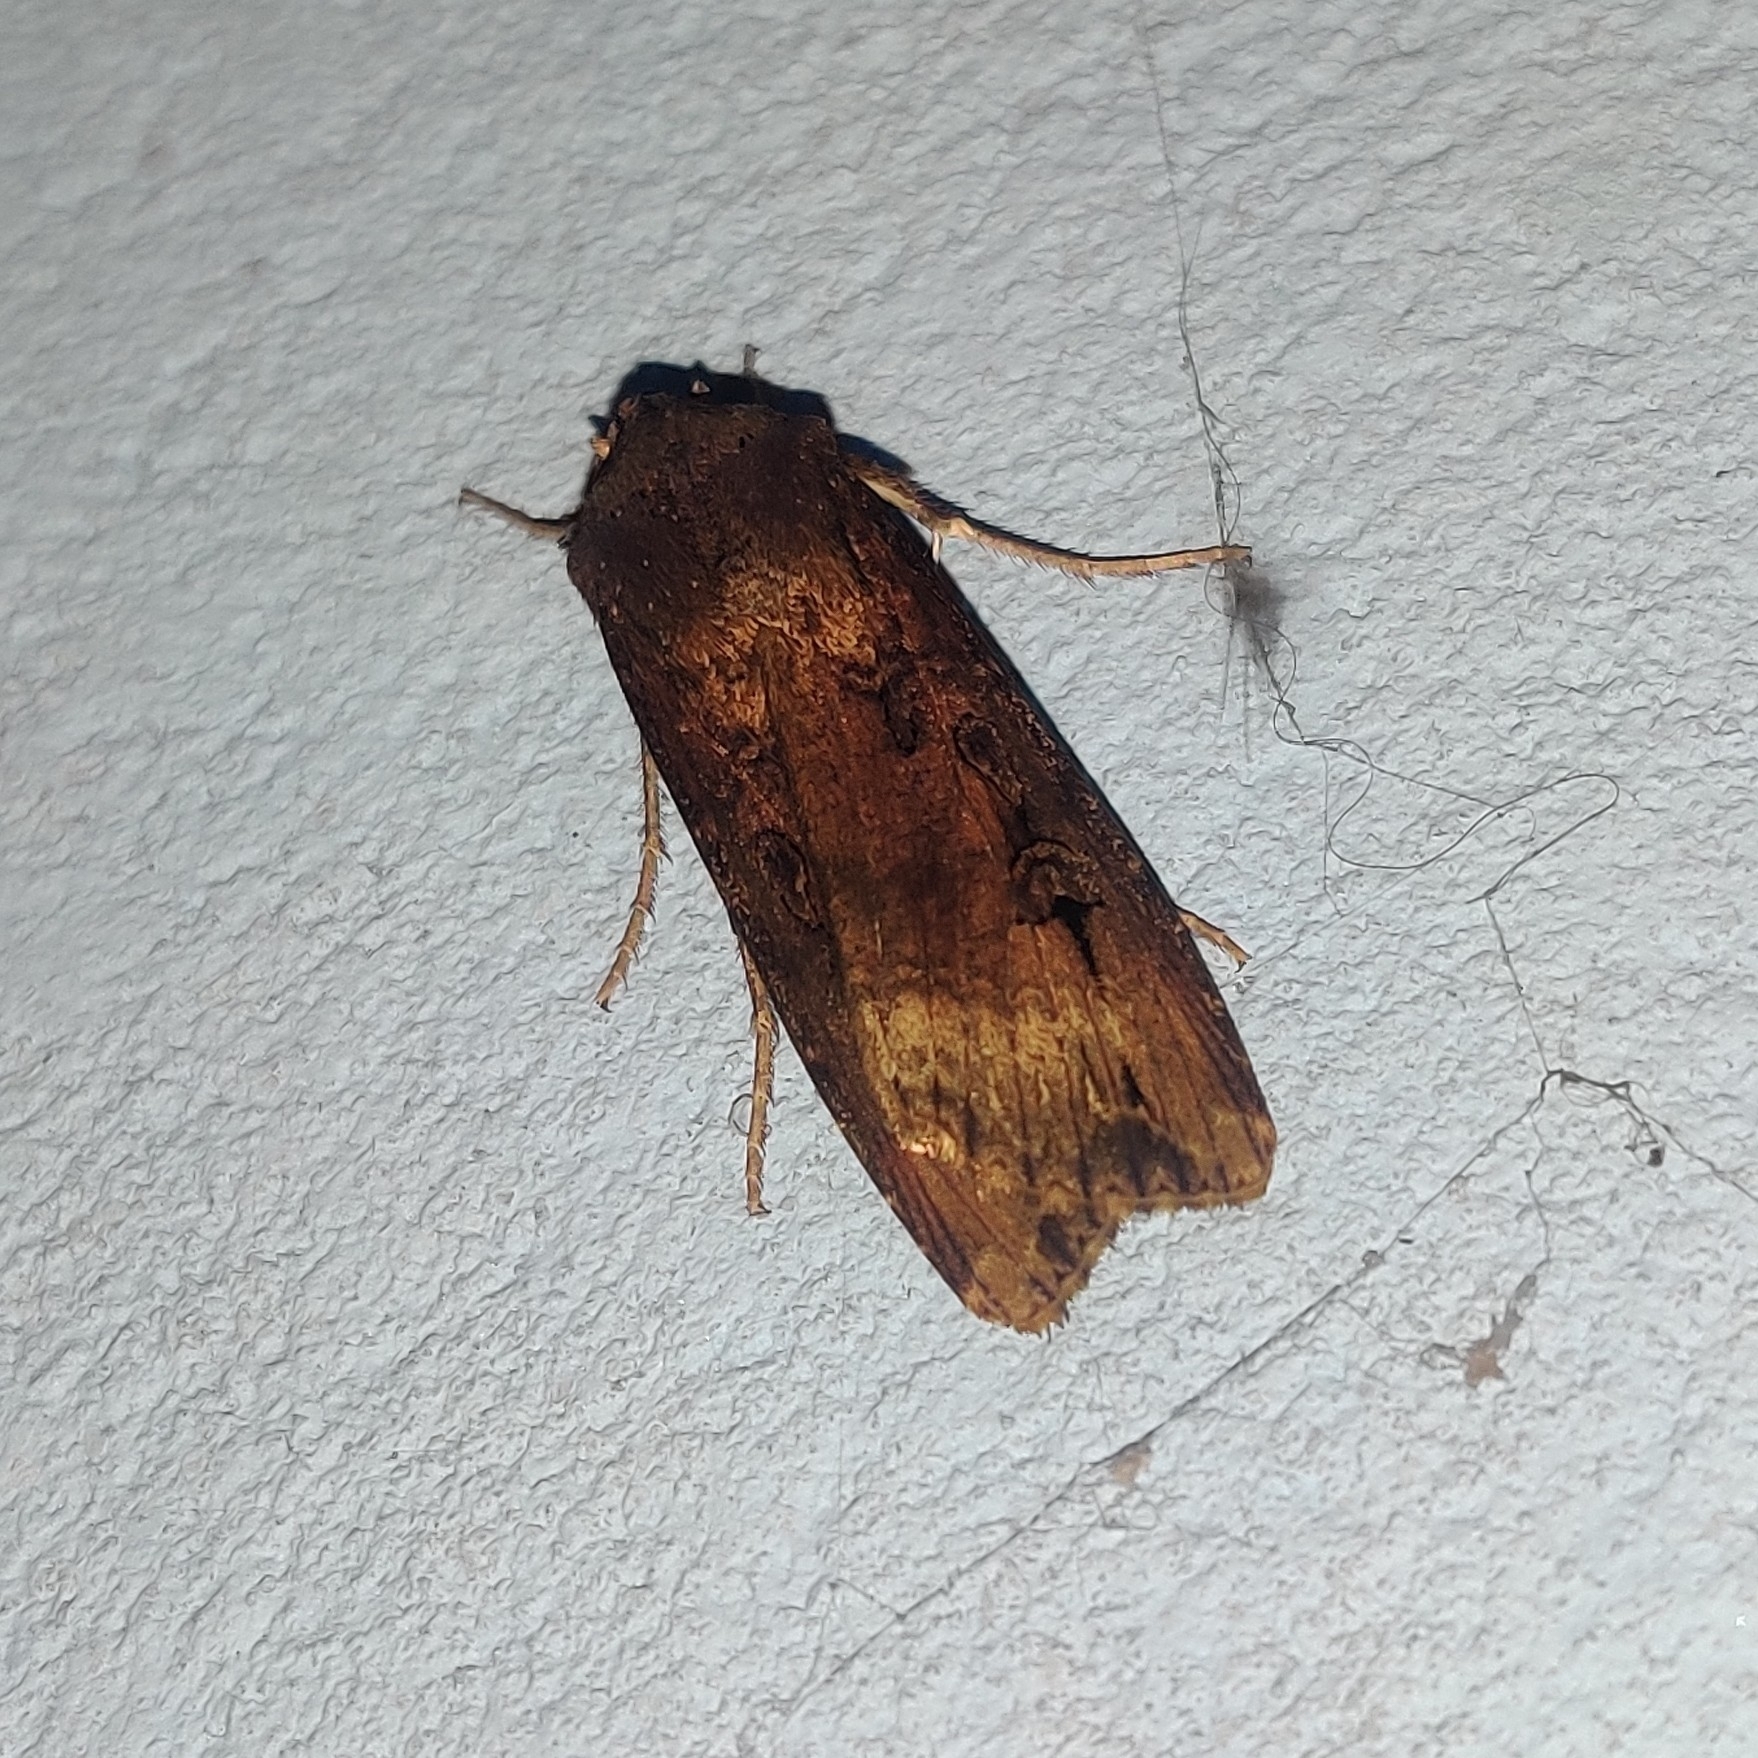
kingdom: Animalia
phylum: Arthropoda
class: Insecta
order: Lepidoptera
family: Noctuidae
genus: Agrotis
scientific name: Agrotis ipsilon
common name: Dark sword-grass
